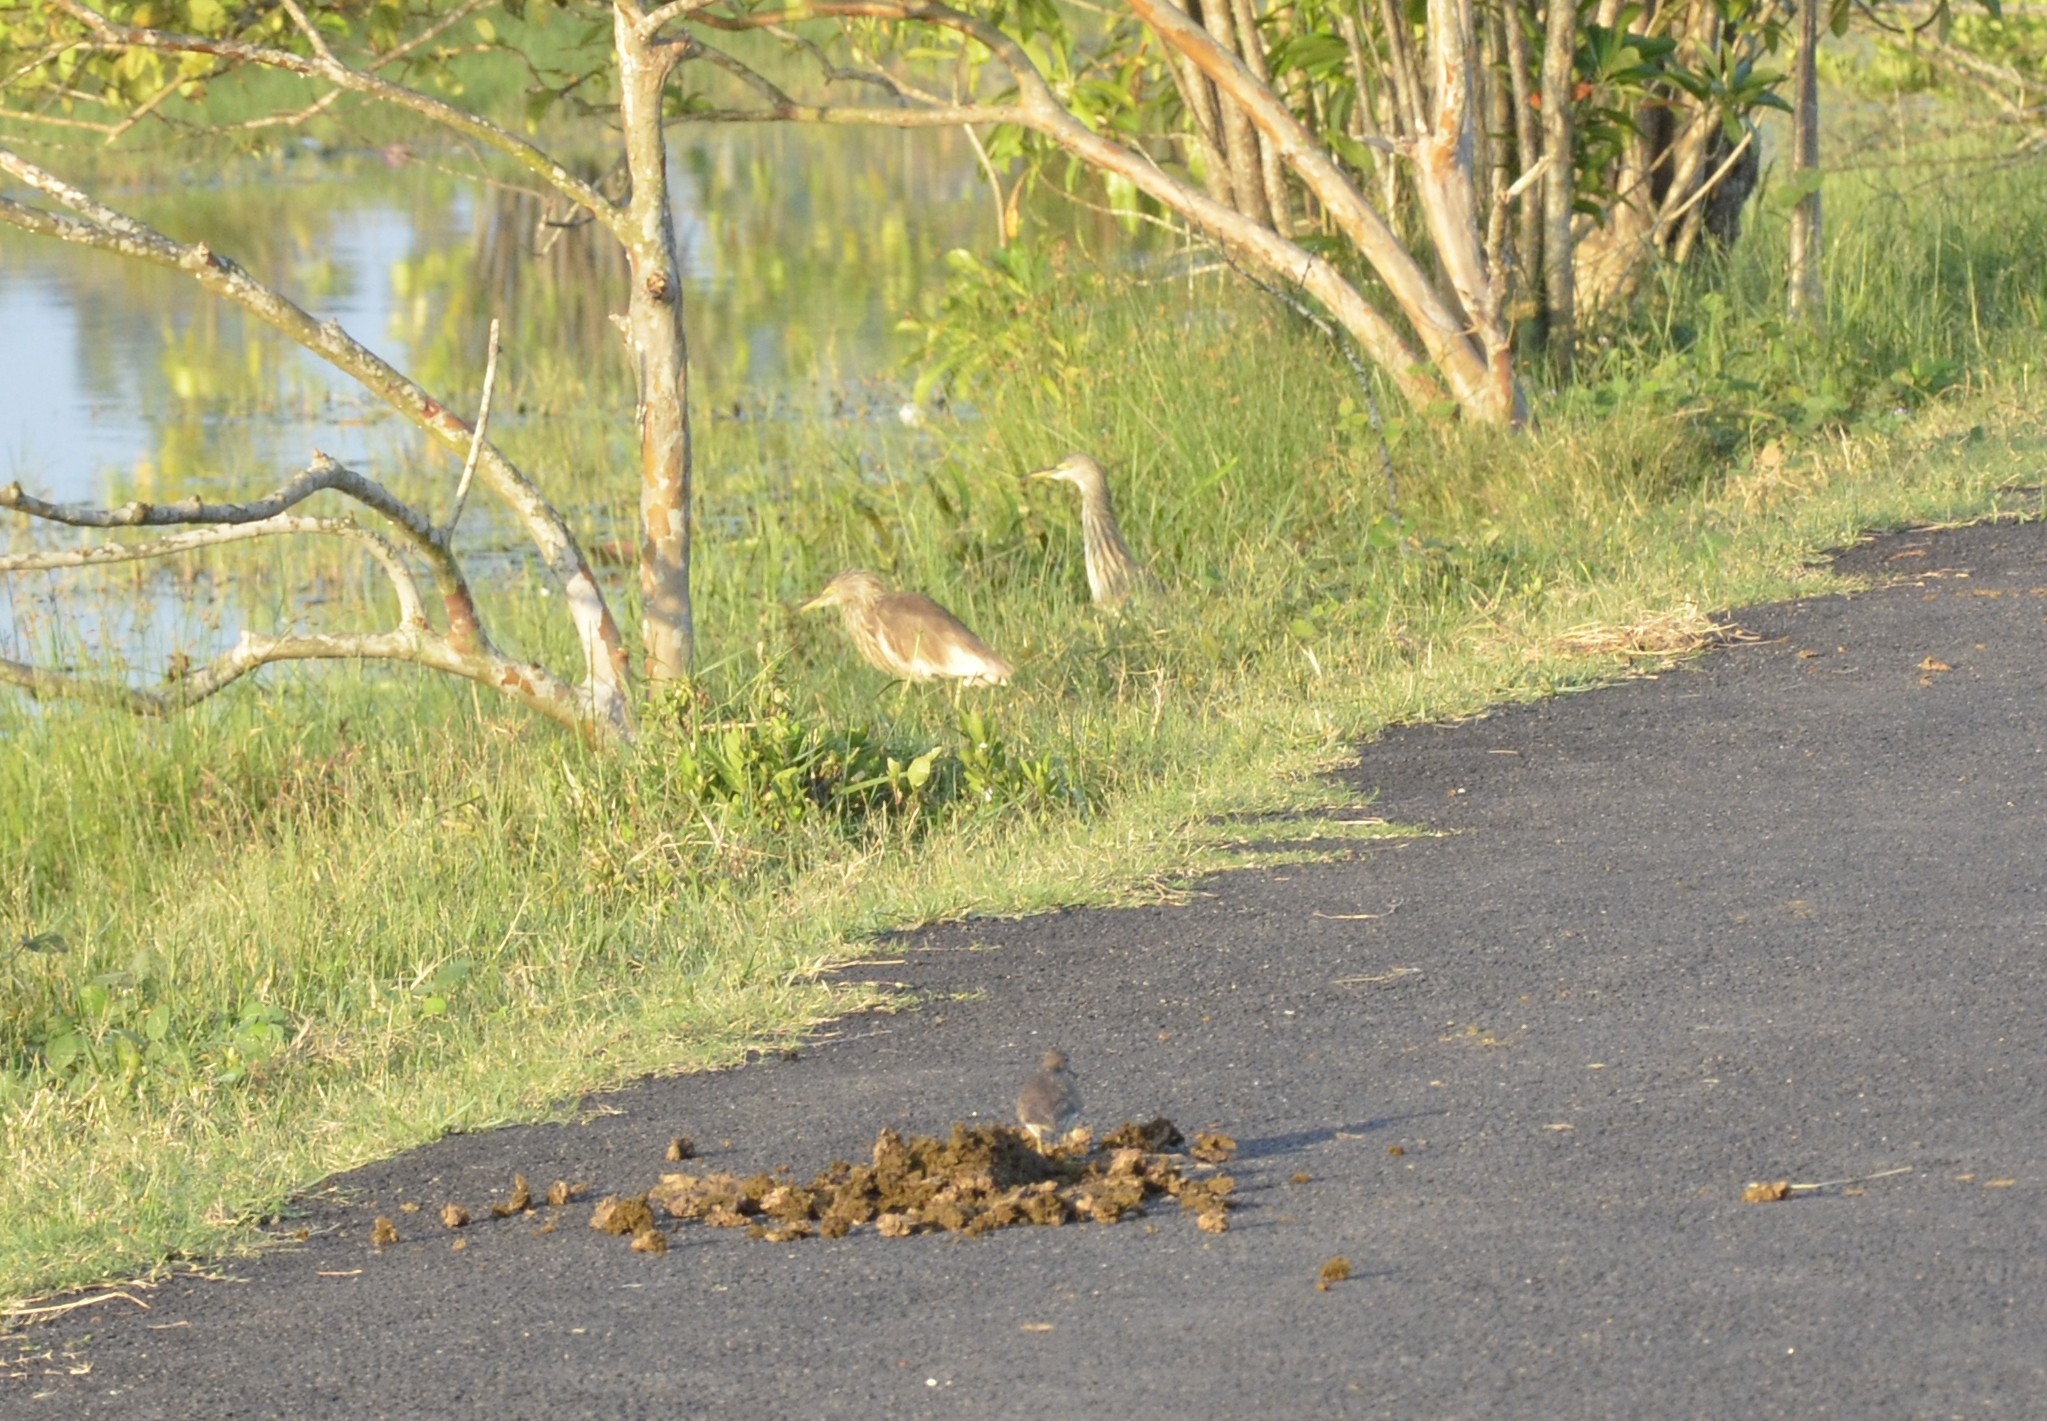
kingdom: Animalia
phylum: Chordata
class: Aves
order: Pelecaniformes
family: Ardeidae
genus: Ardeola
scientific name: Ardeola grayii
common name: Indian pond heron
